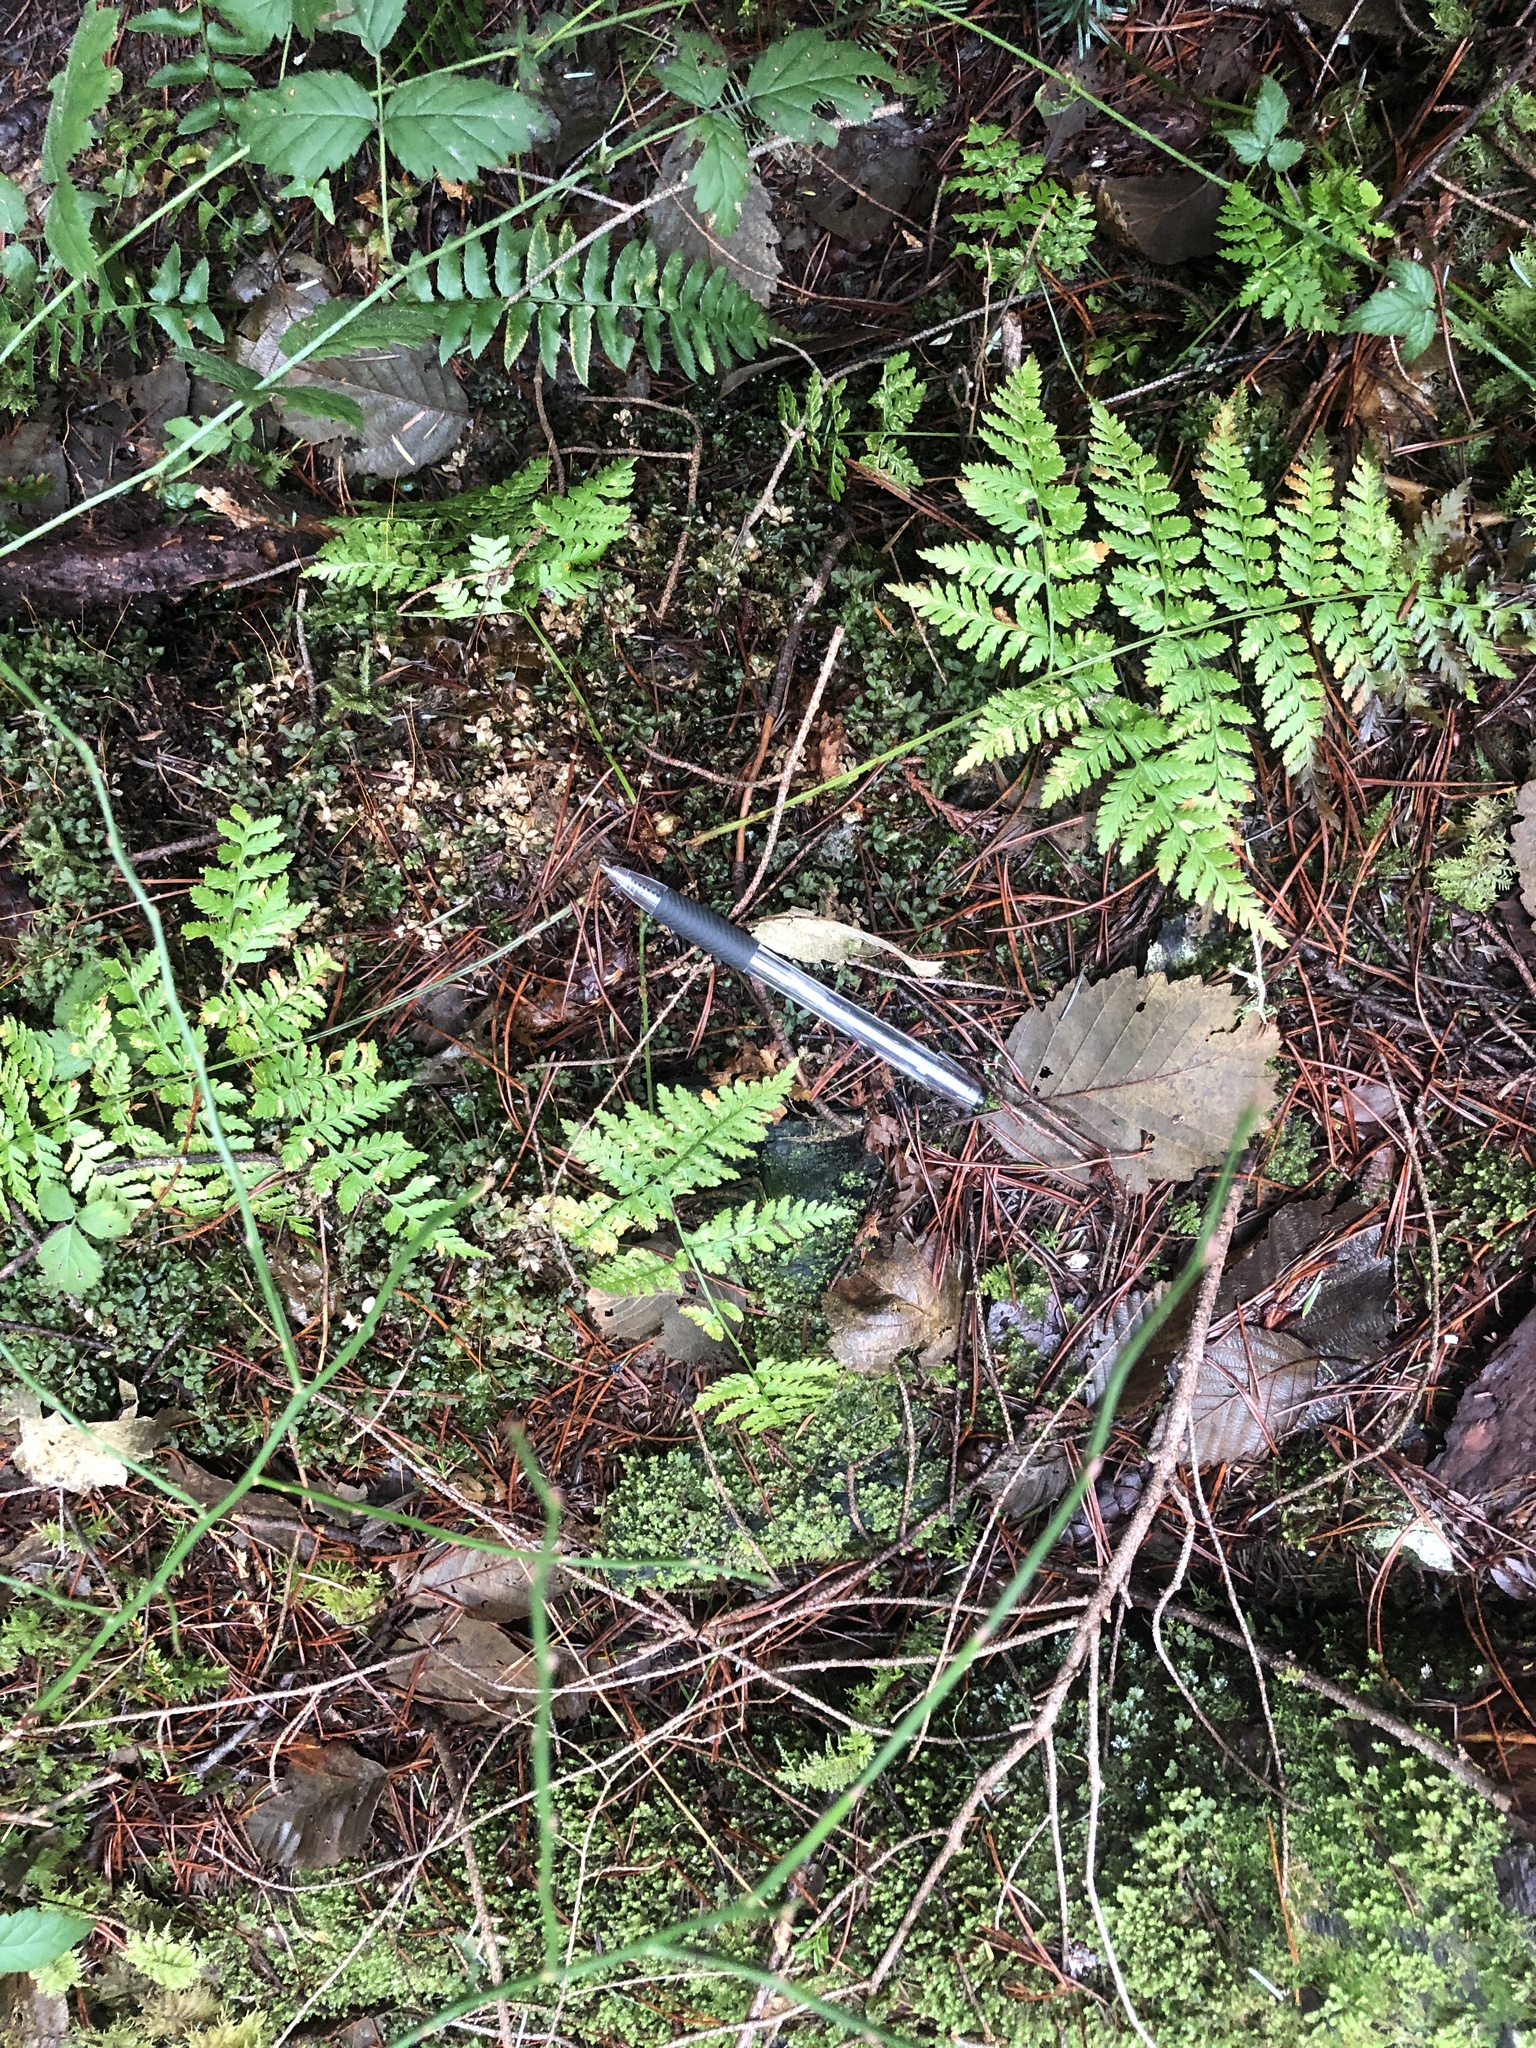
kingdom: Plantae
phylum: Tracheophyta
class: Polypodiopsida
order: Polypodiales
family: Dryopteridaceae
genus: Dryopteris
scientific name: Dryopteris expansa
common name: Northern buckler fern
